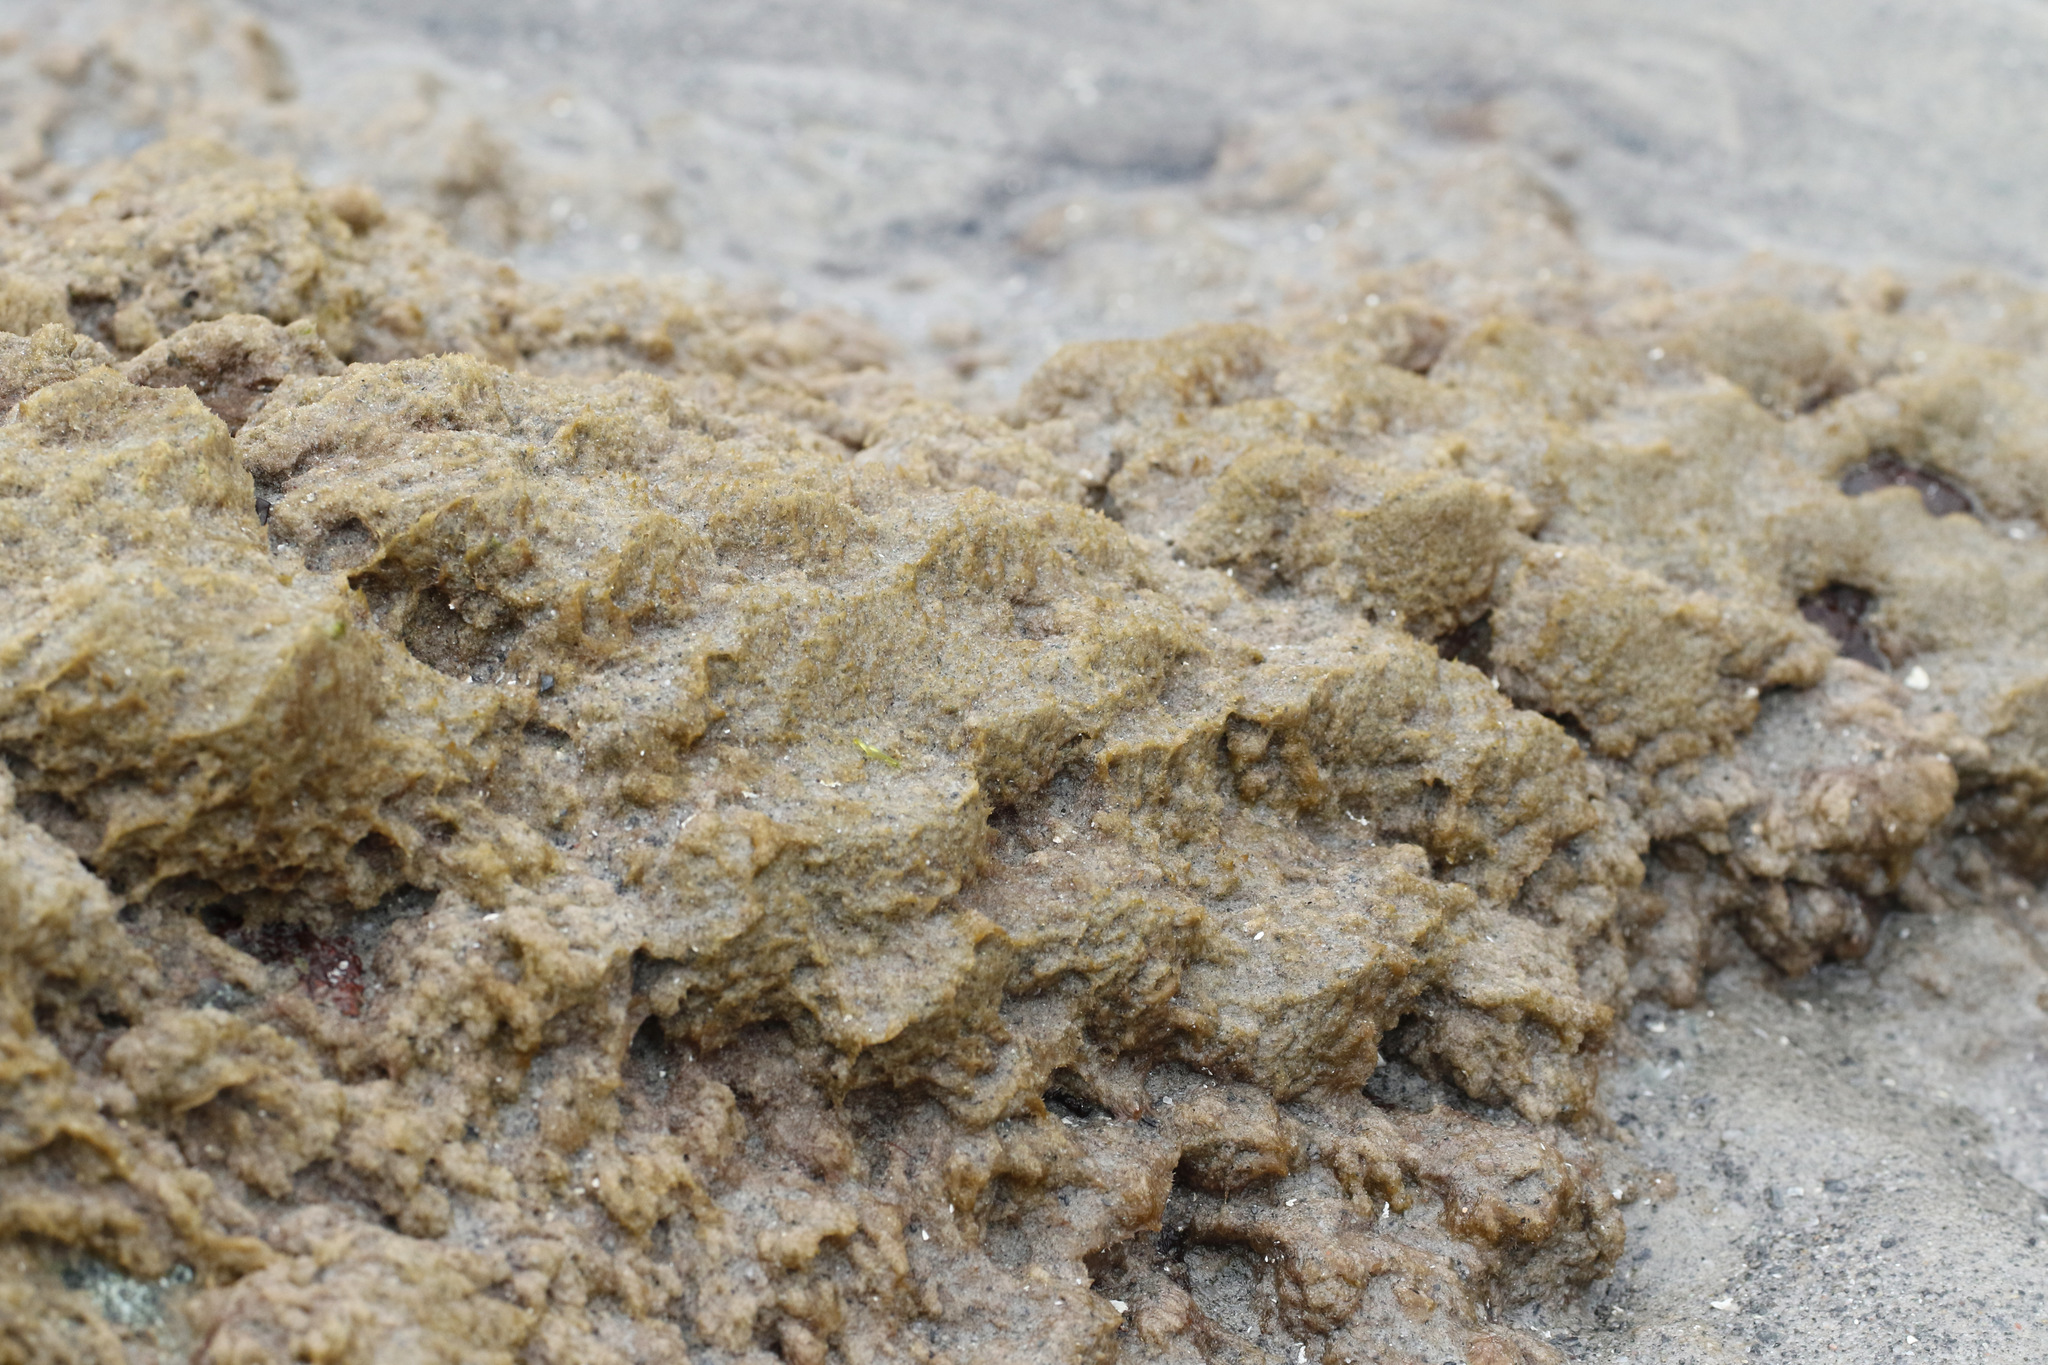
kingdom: Plantae
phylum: Rhodophyta
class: Florideophyceae
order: Palmariales
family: Rhodothamniellaceae
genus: Rhodothamniella
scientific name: Rhodothamniella floridula
